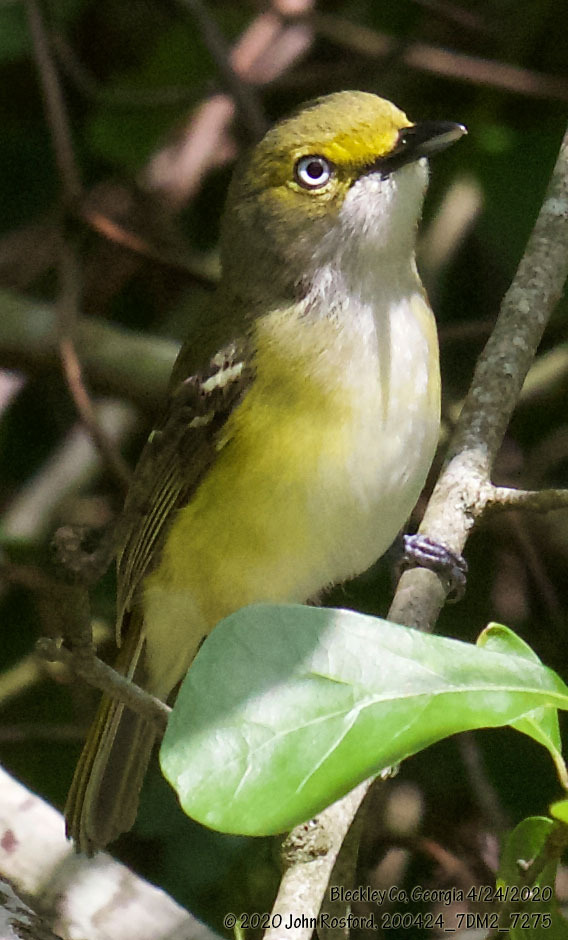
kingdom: Animalia
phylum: Chordata
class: Aves
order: Passeriformes
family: Vireonidae
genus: Vireo
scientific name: Vireo griseus
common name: White-eyed vireo
